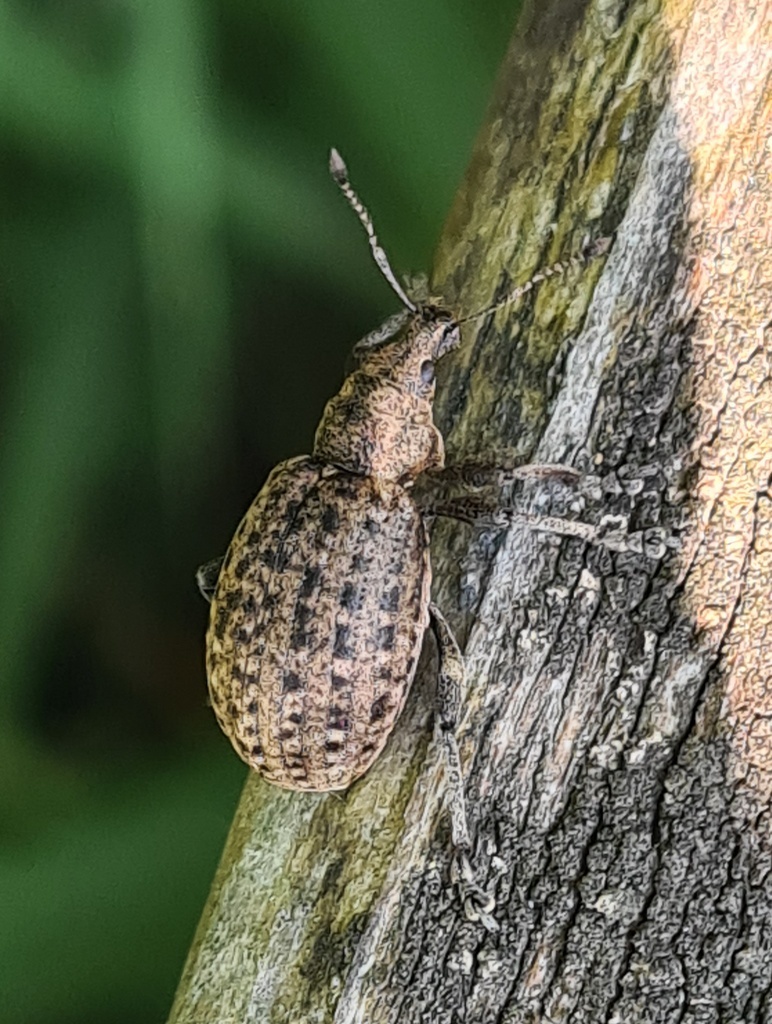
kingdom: Animalia
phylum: Arthropoda
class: Insecta
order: Coleoptera
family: Curculionidae
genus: Liophloeus
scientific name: Liophloeus tessulatus
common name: Weevil
